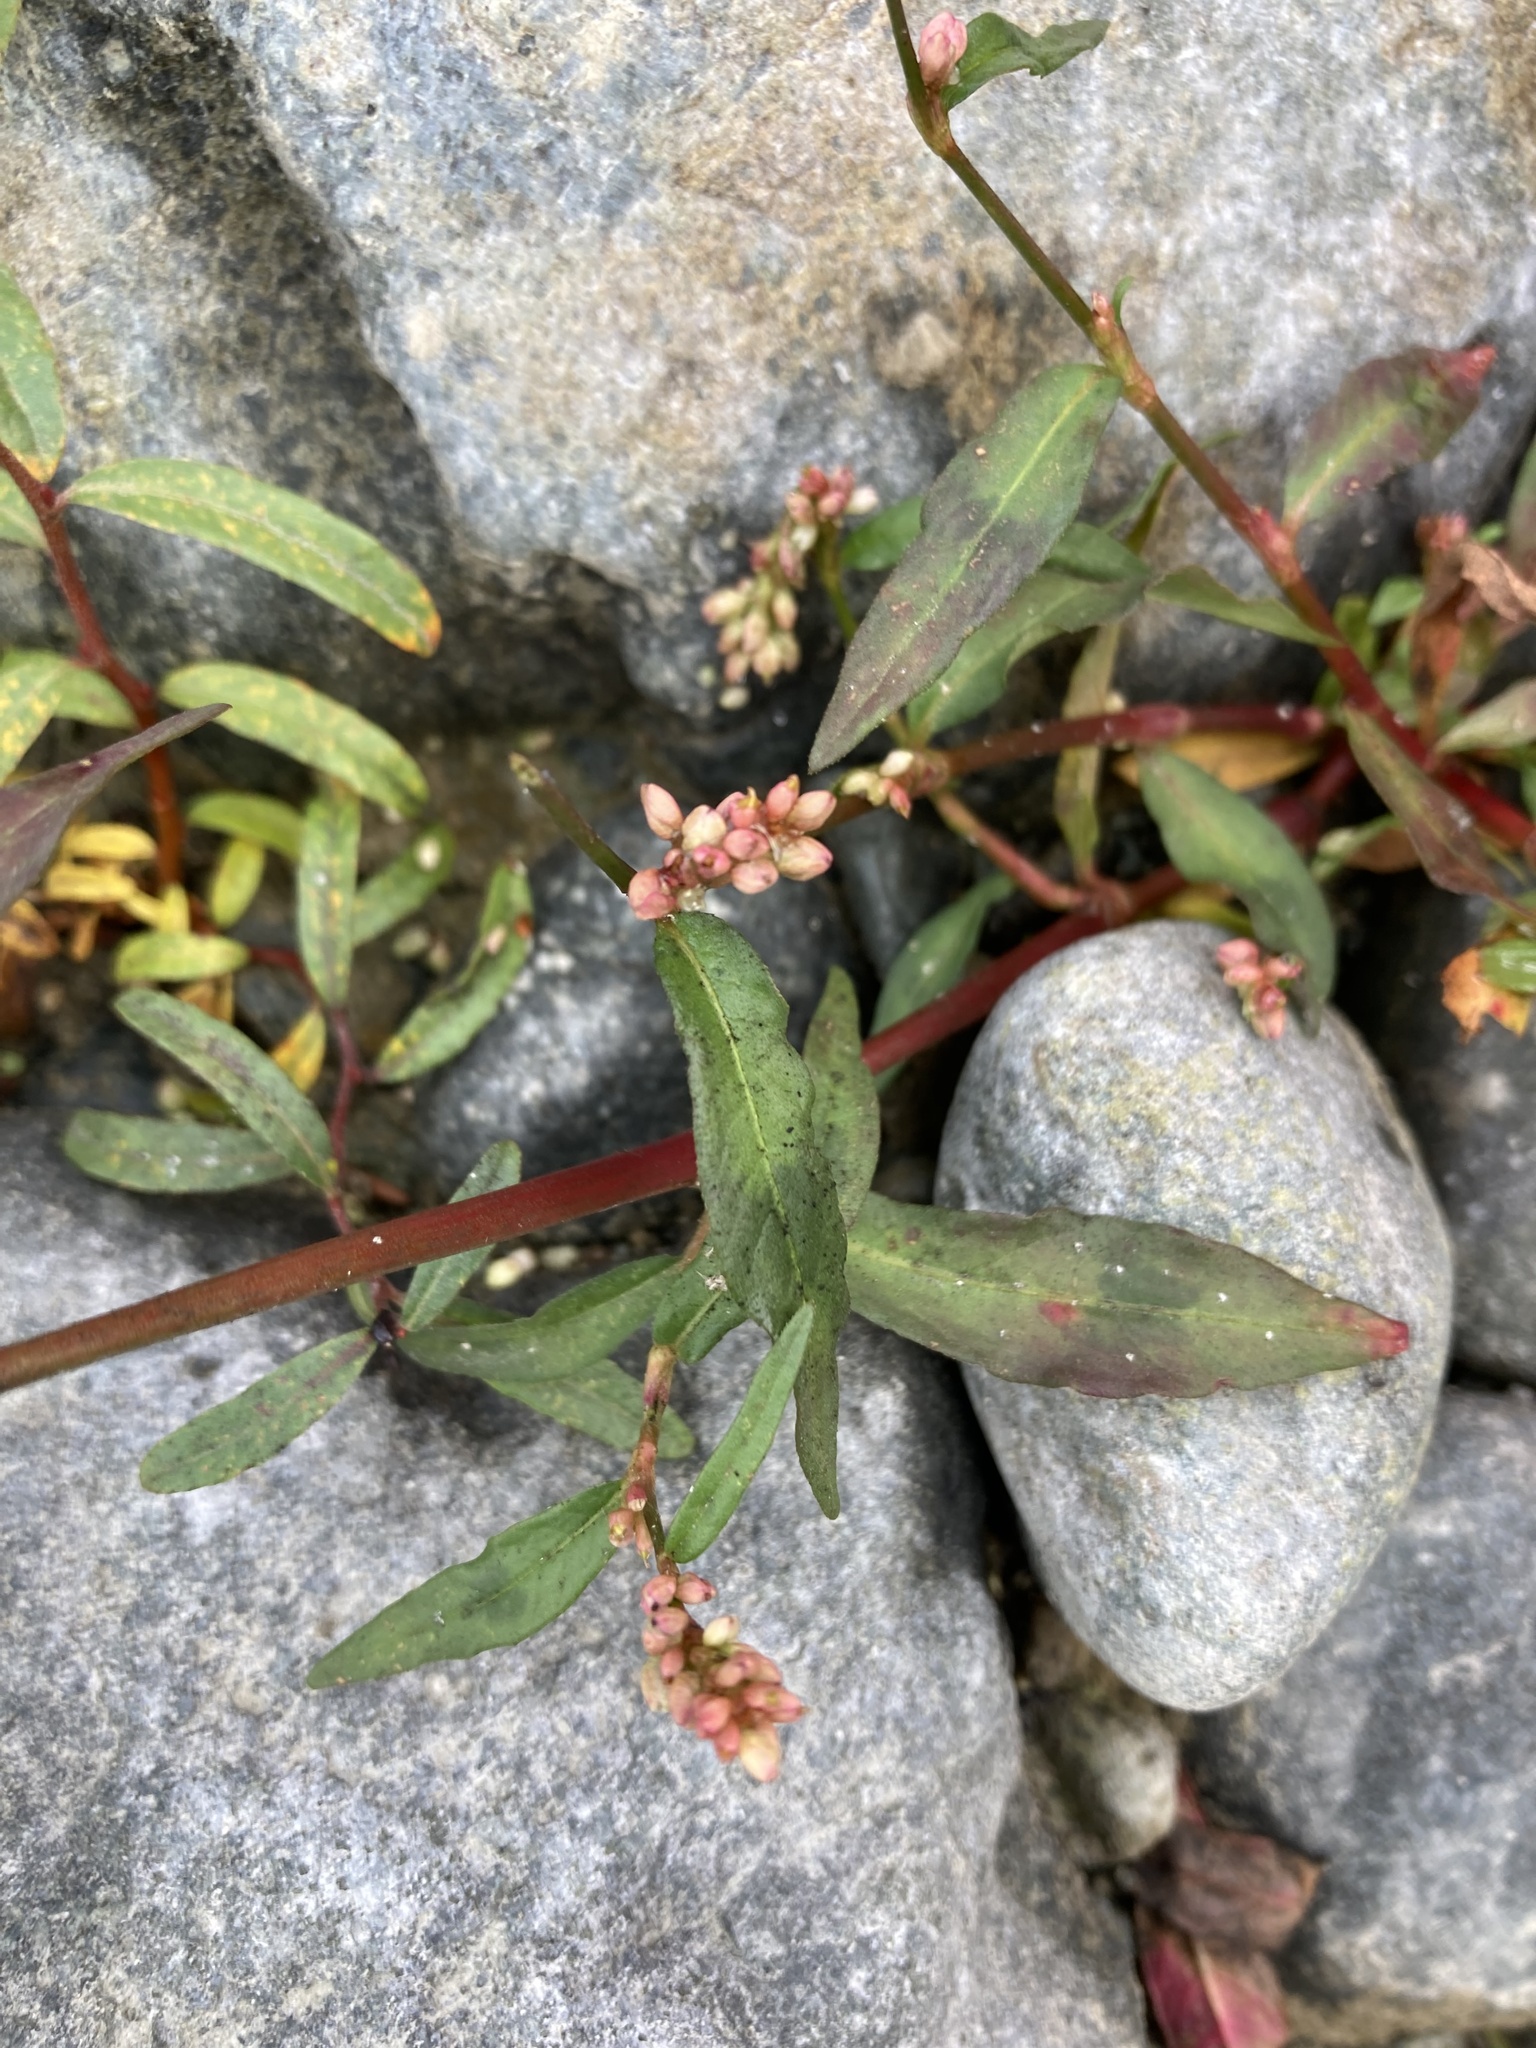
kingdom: Plantae
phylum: Tracheophyta
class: Magnoliopsida
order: Caryophyllales
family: Polygonaceae
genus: Persicaria
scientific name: Persicaria maculosa
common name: Redshank
